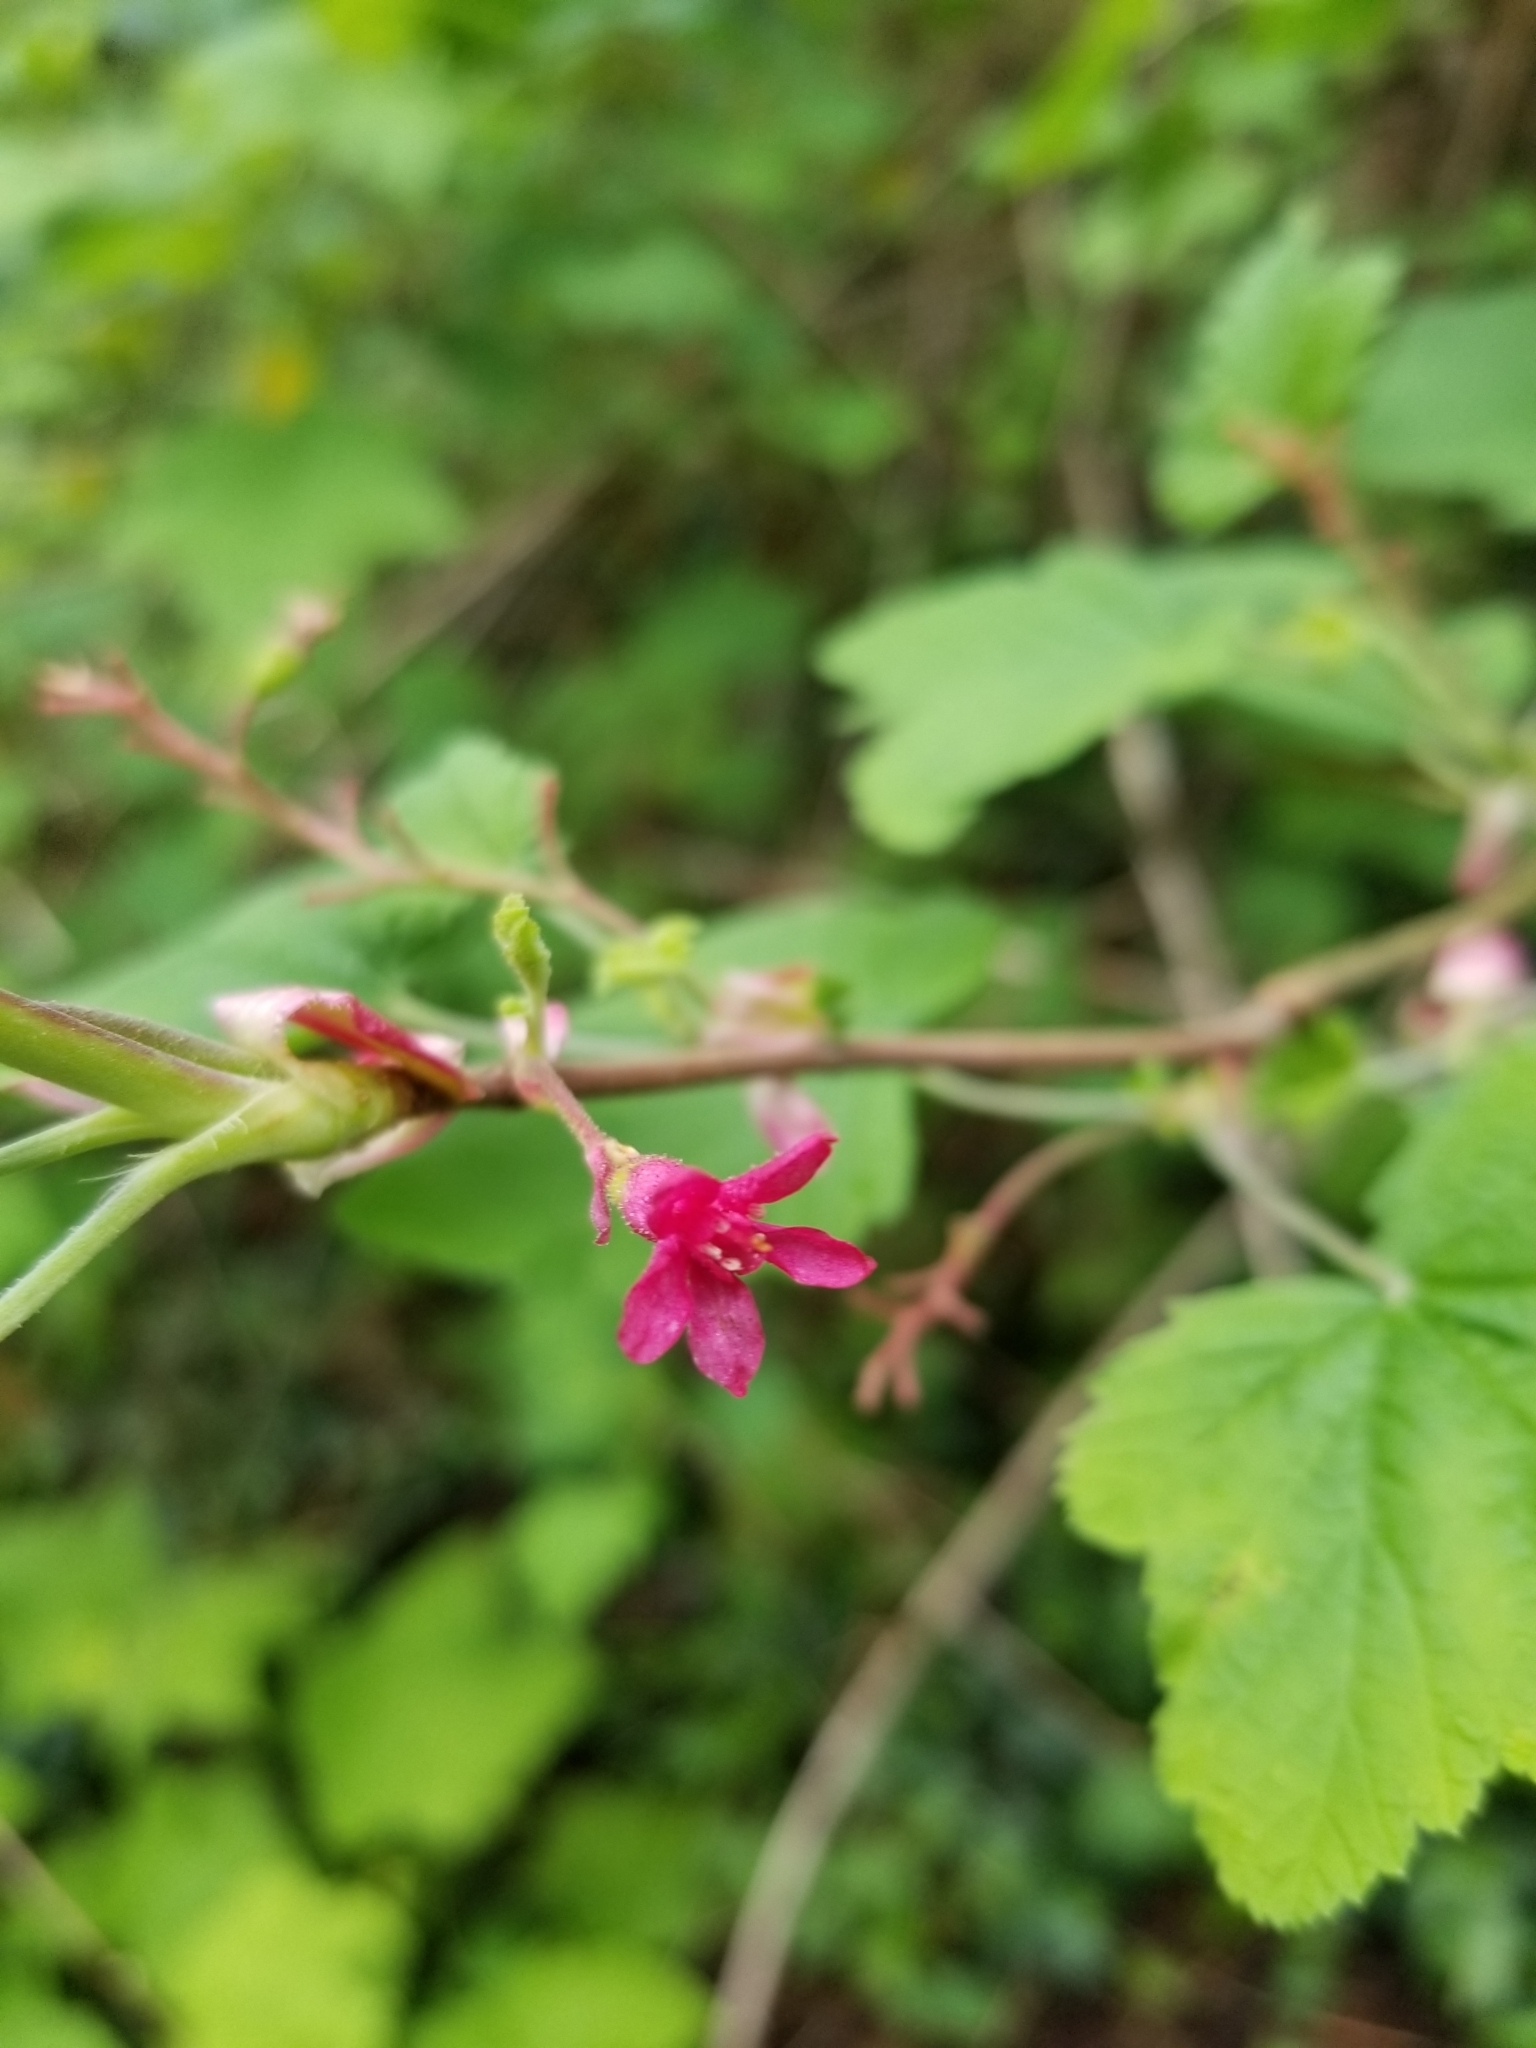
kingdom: Plantae
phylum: Tracheophyta
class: Magnoliopsida
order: Saxifragales
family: Grossulariaceae
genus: Ribes
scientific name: Ribes sanguineum
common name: Flowering currant
